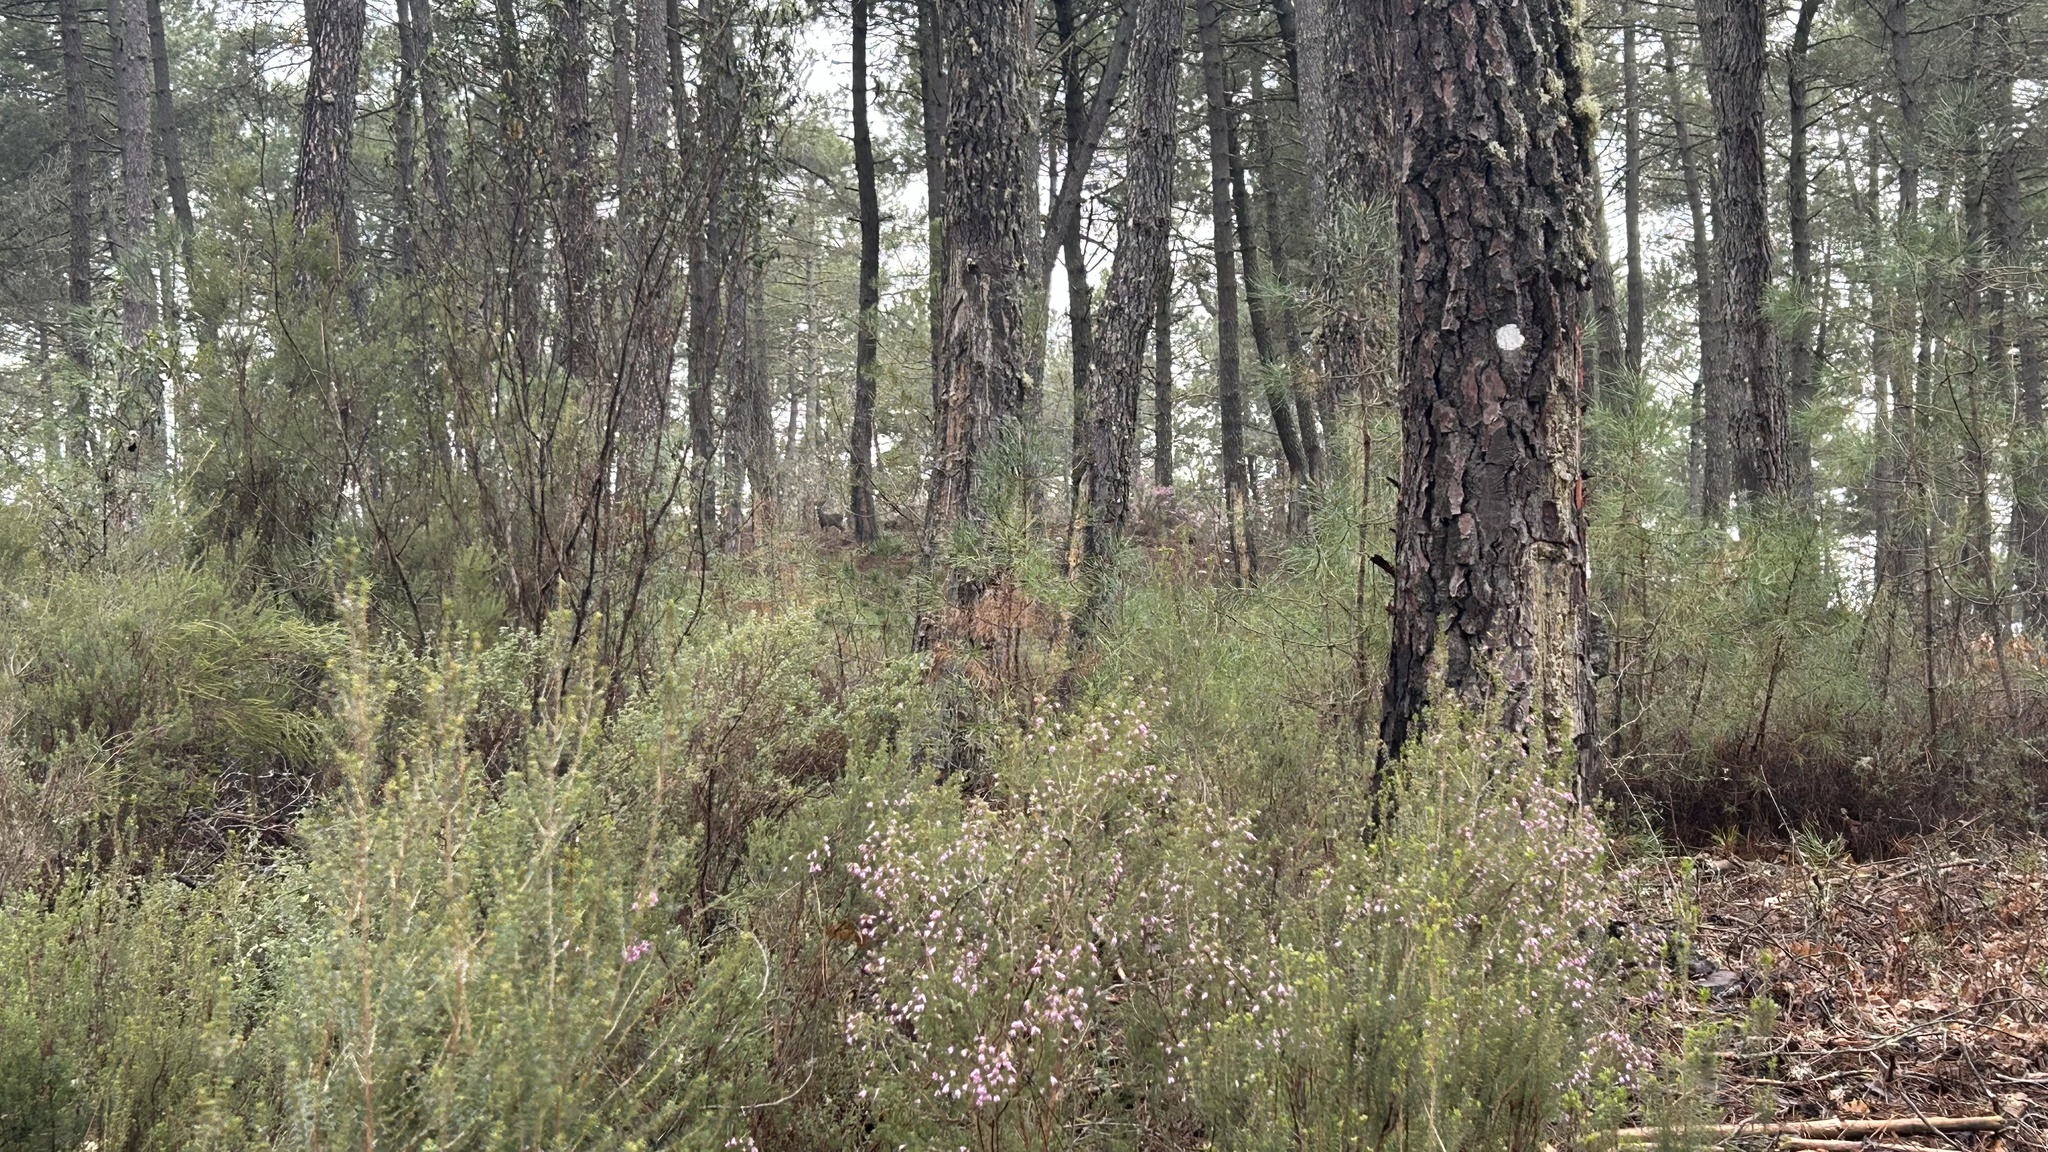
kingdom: Animalia
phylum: Chordata
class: Mammalia
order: Artiodactyla
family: Cervidae
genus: Capreolus
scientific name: Capreolus capreolus
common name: Western roe deer
